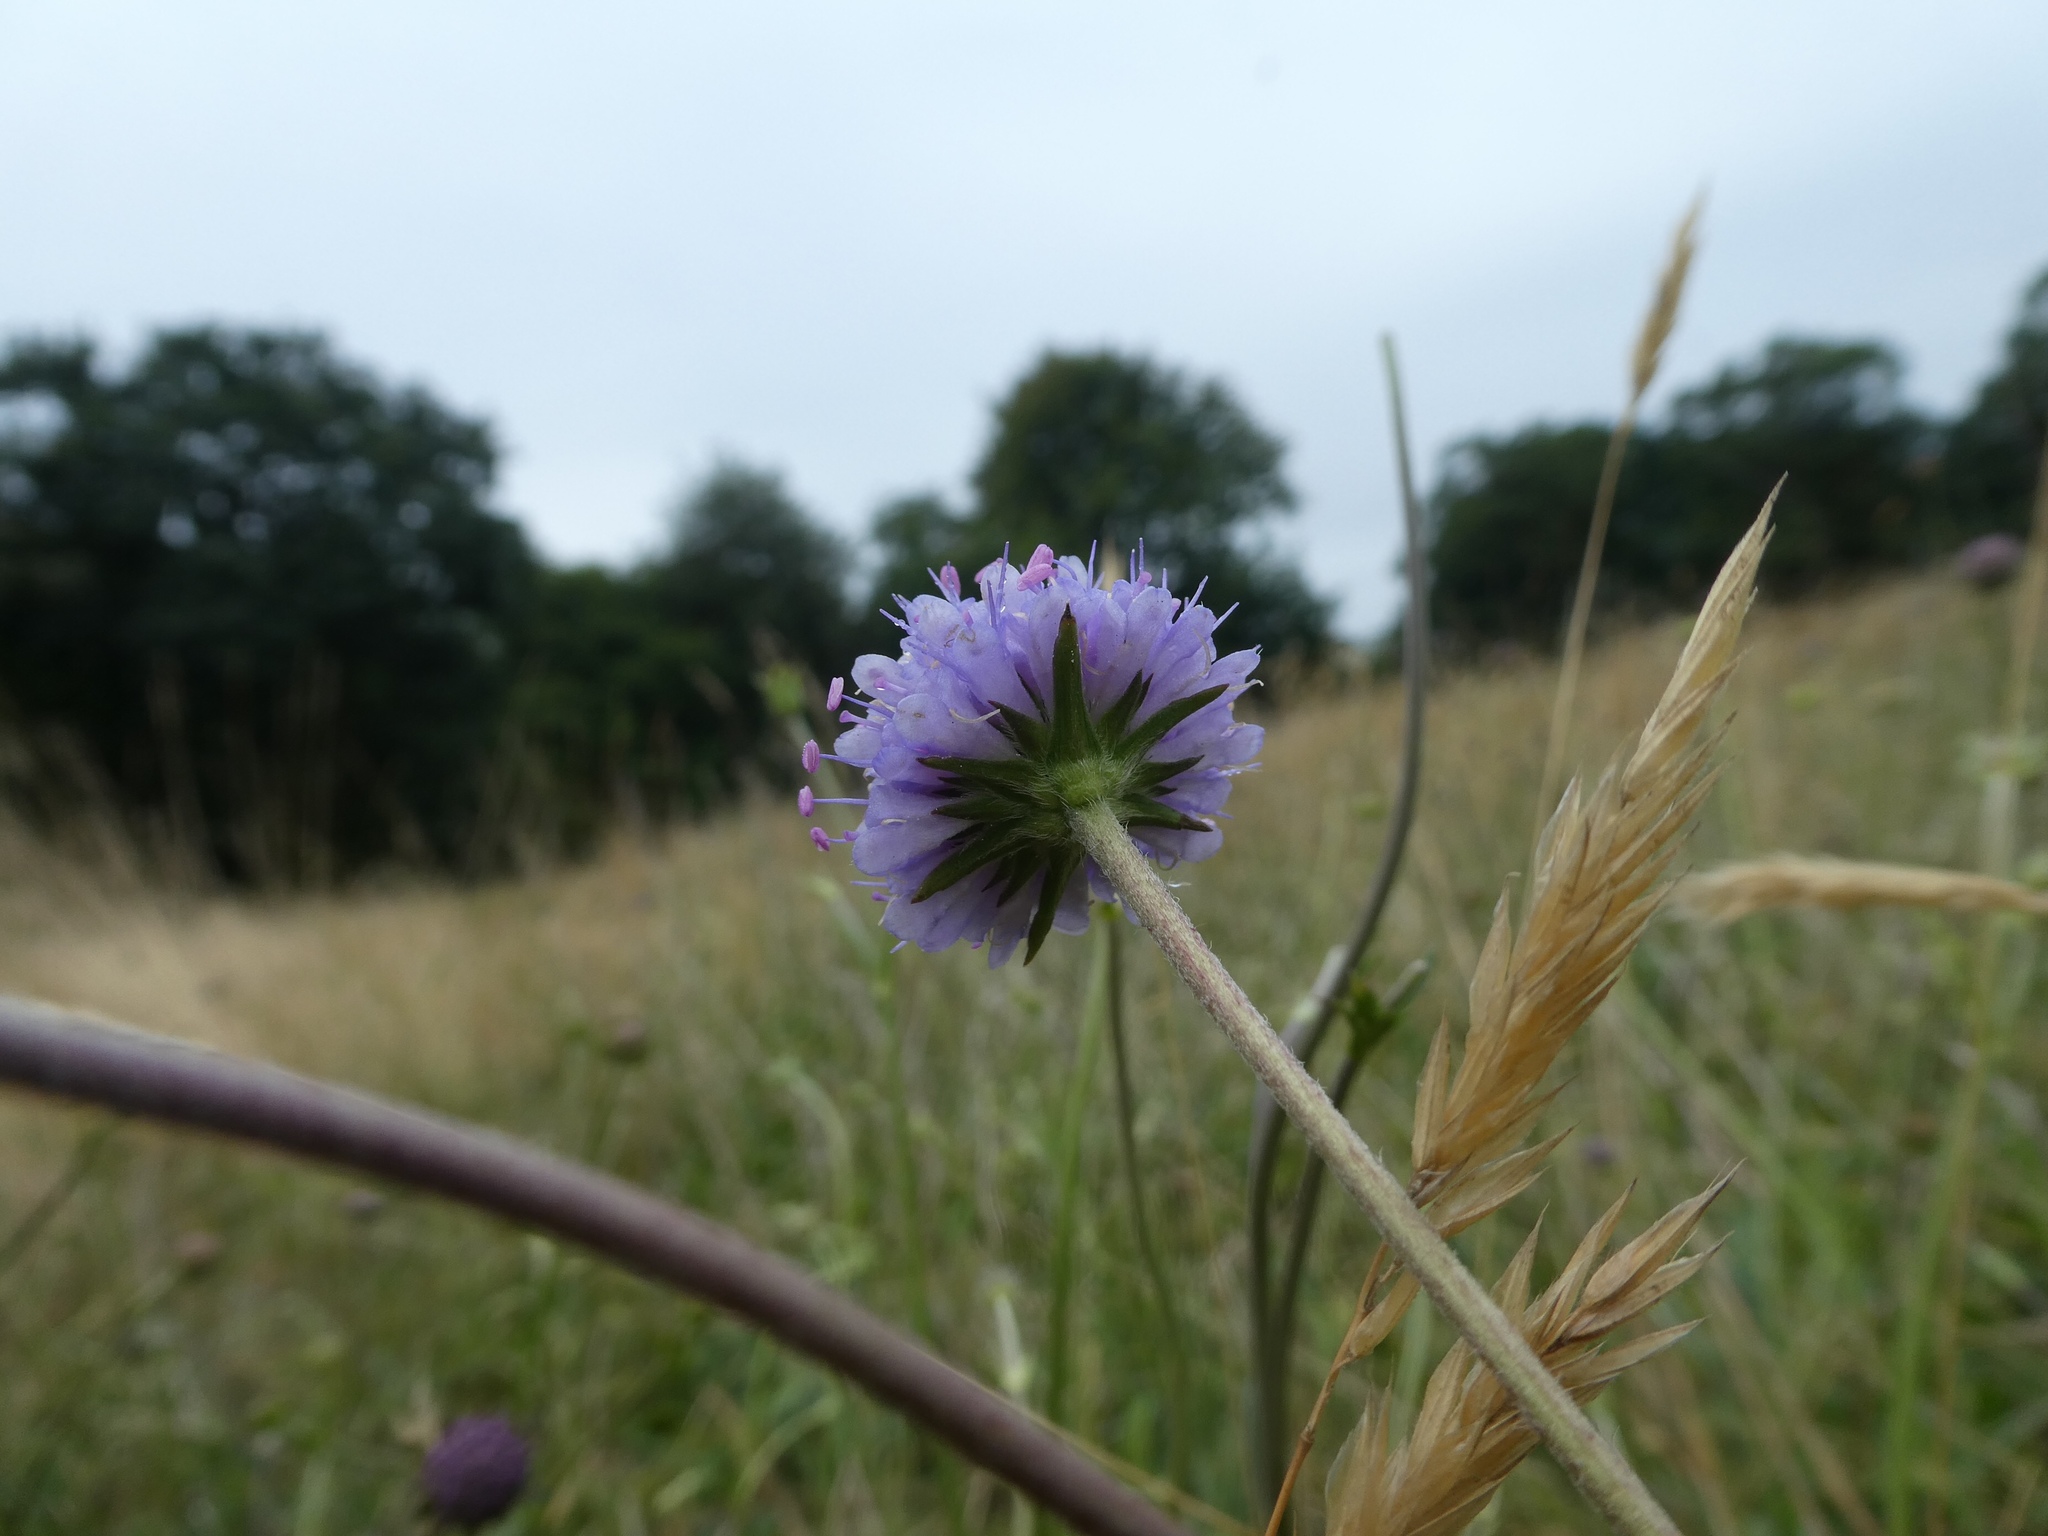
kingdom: Plantae
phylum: Tracheophyta
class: Magnoliopsida
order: Dipsacales
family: Caprifoliaceae
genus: Succisa
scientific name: Succisa pratensis
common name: Devil's-bit
